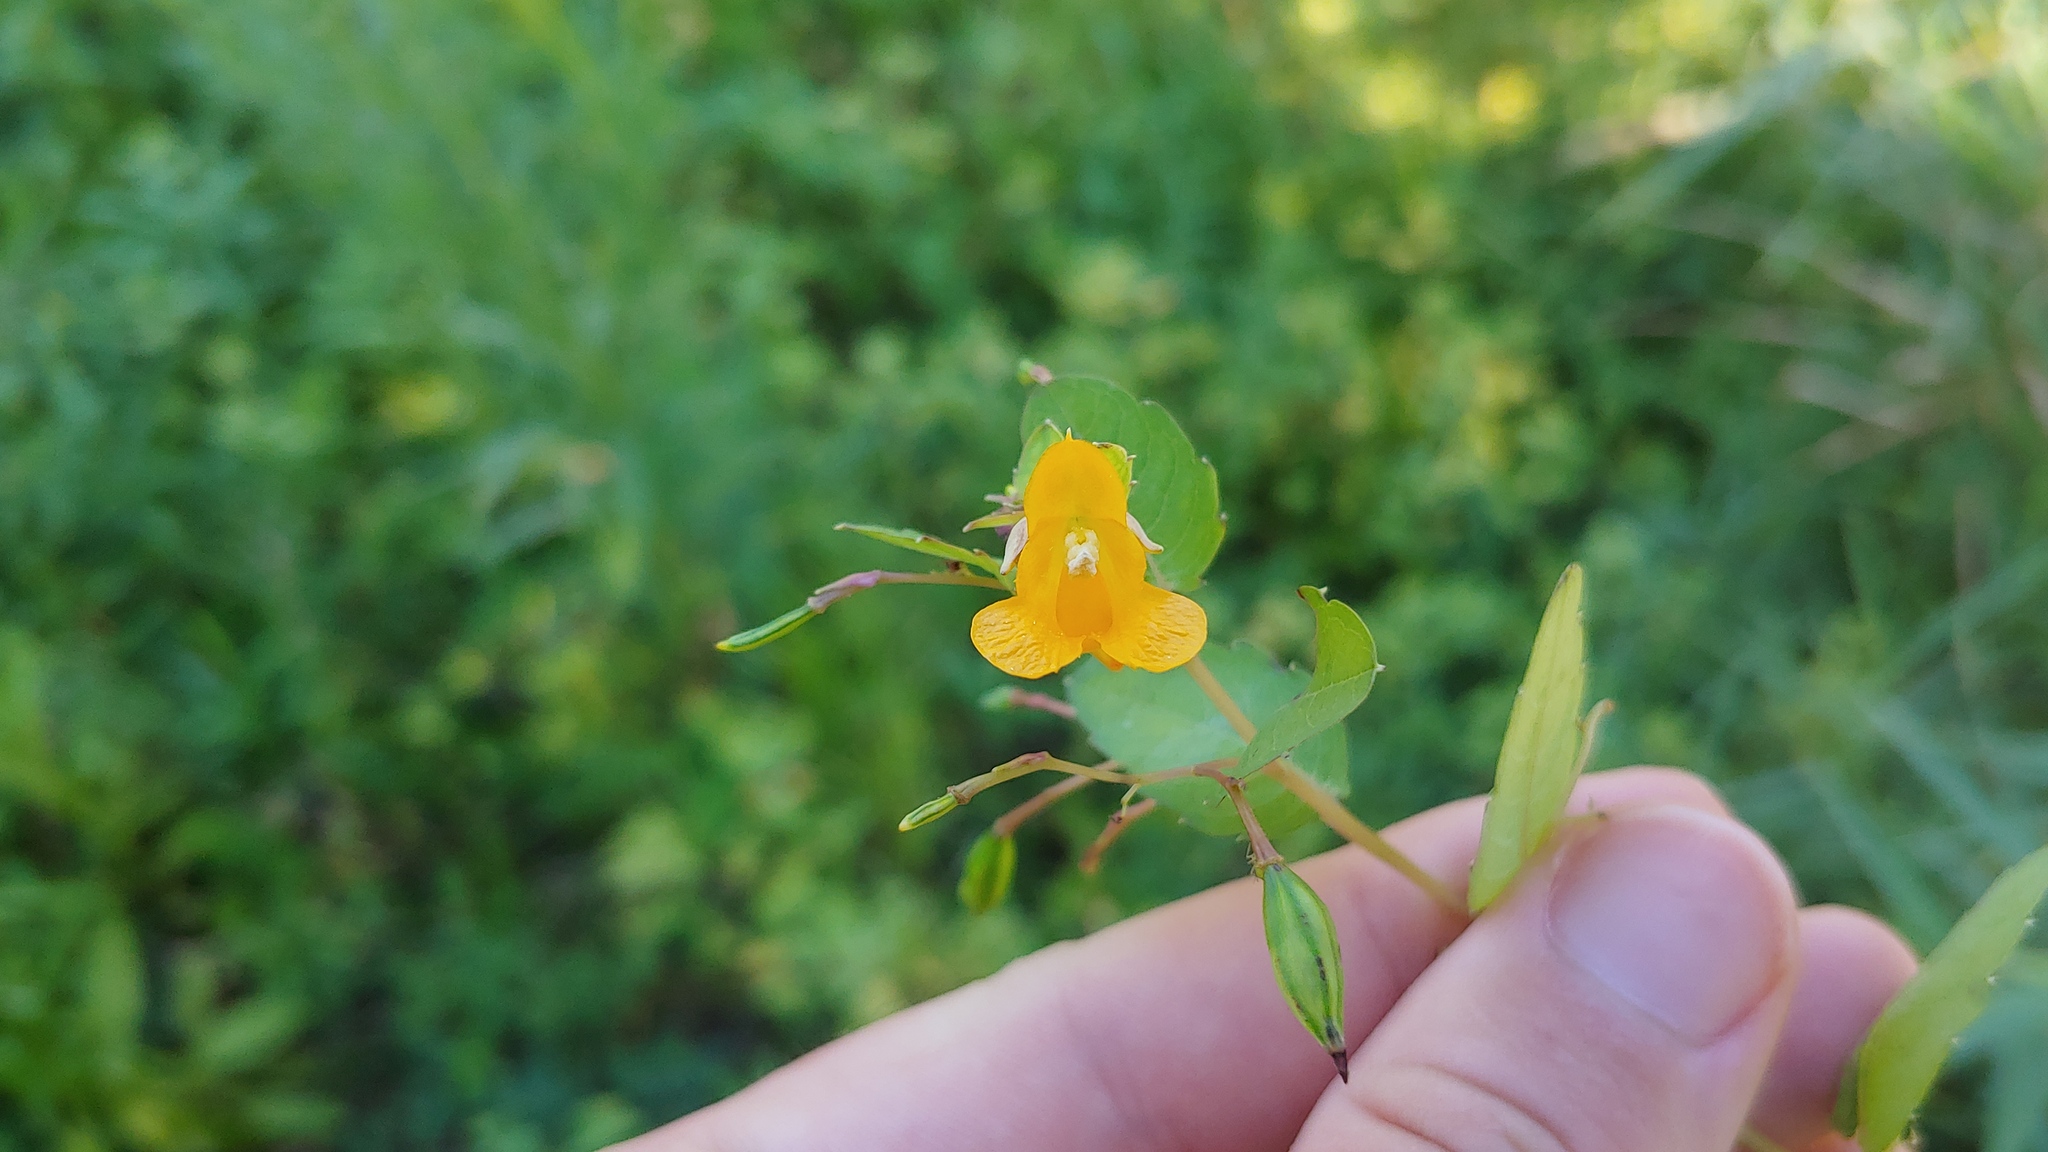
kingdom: Plantae
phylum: Tracheophyta
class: Magnoliopsida
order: Ericales
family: Balsaminaceae
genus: Impatiens
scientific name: Impatiens capensis
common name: Orange balsam
